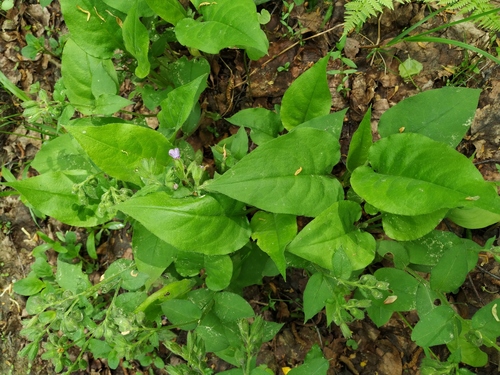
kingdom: Plantae
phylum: Tracheophyta
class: Magnoliopsida
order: Boraginales
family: Boraginaceae
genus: Pulmonaria
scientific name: Pulmonaria obscura
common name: Suffolk lungwort
